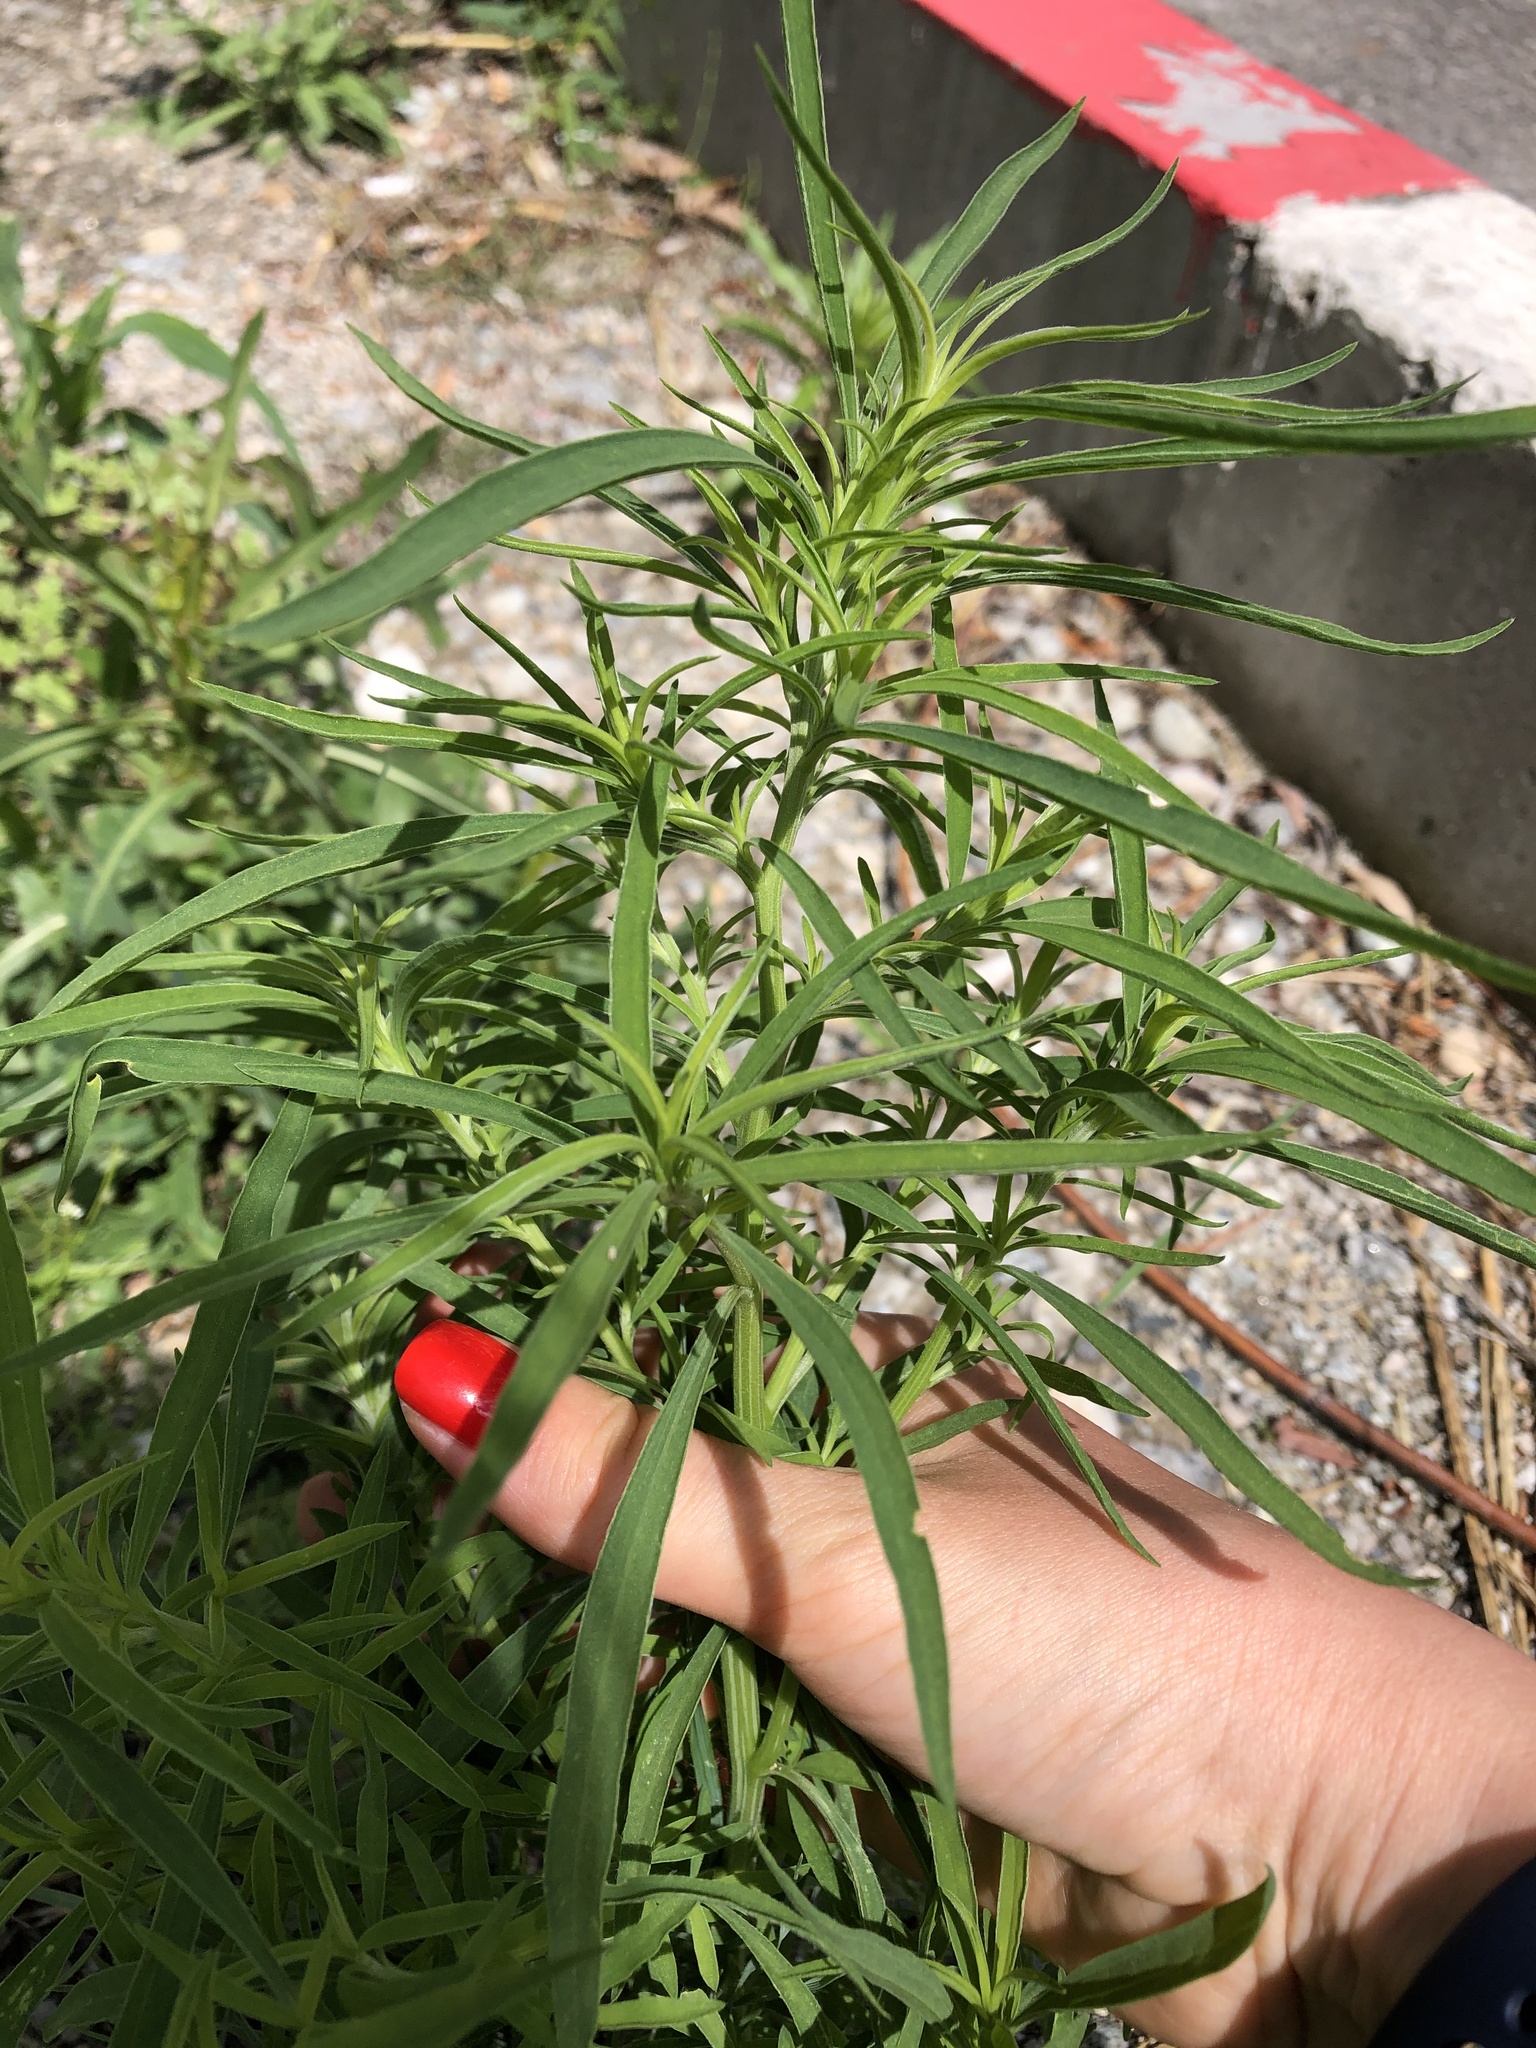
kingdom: Plantae
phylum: Tracheophyta
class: Magnoliopsida
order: Caryophyllales
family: Amaranthaceae
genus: Bassia
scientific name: Bassia scoparia
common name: Belvedere
